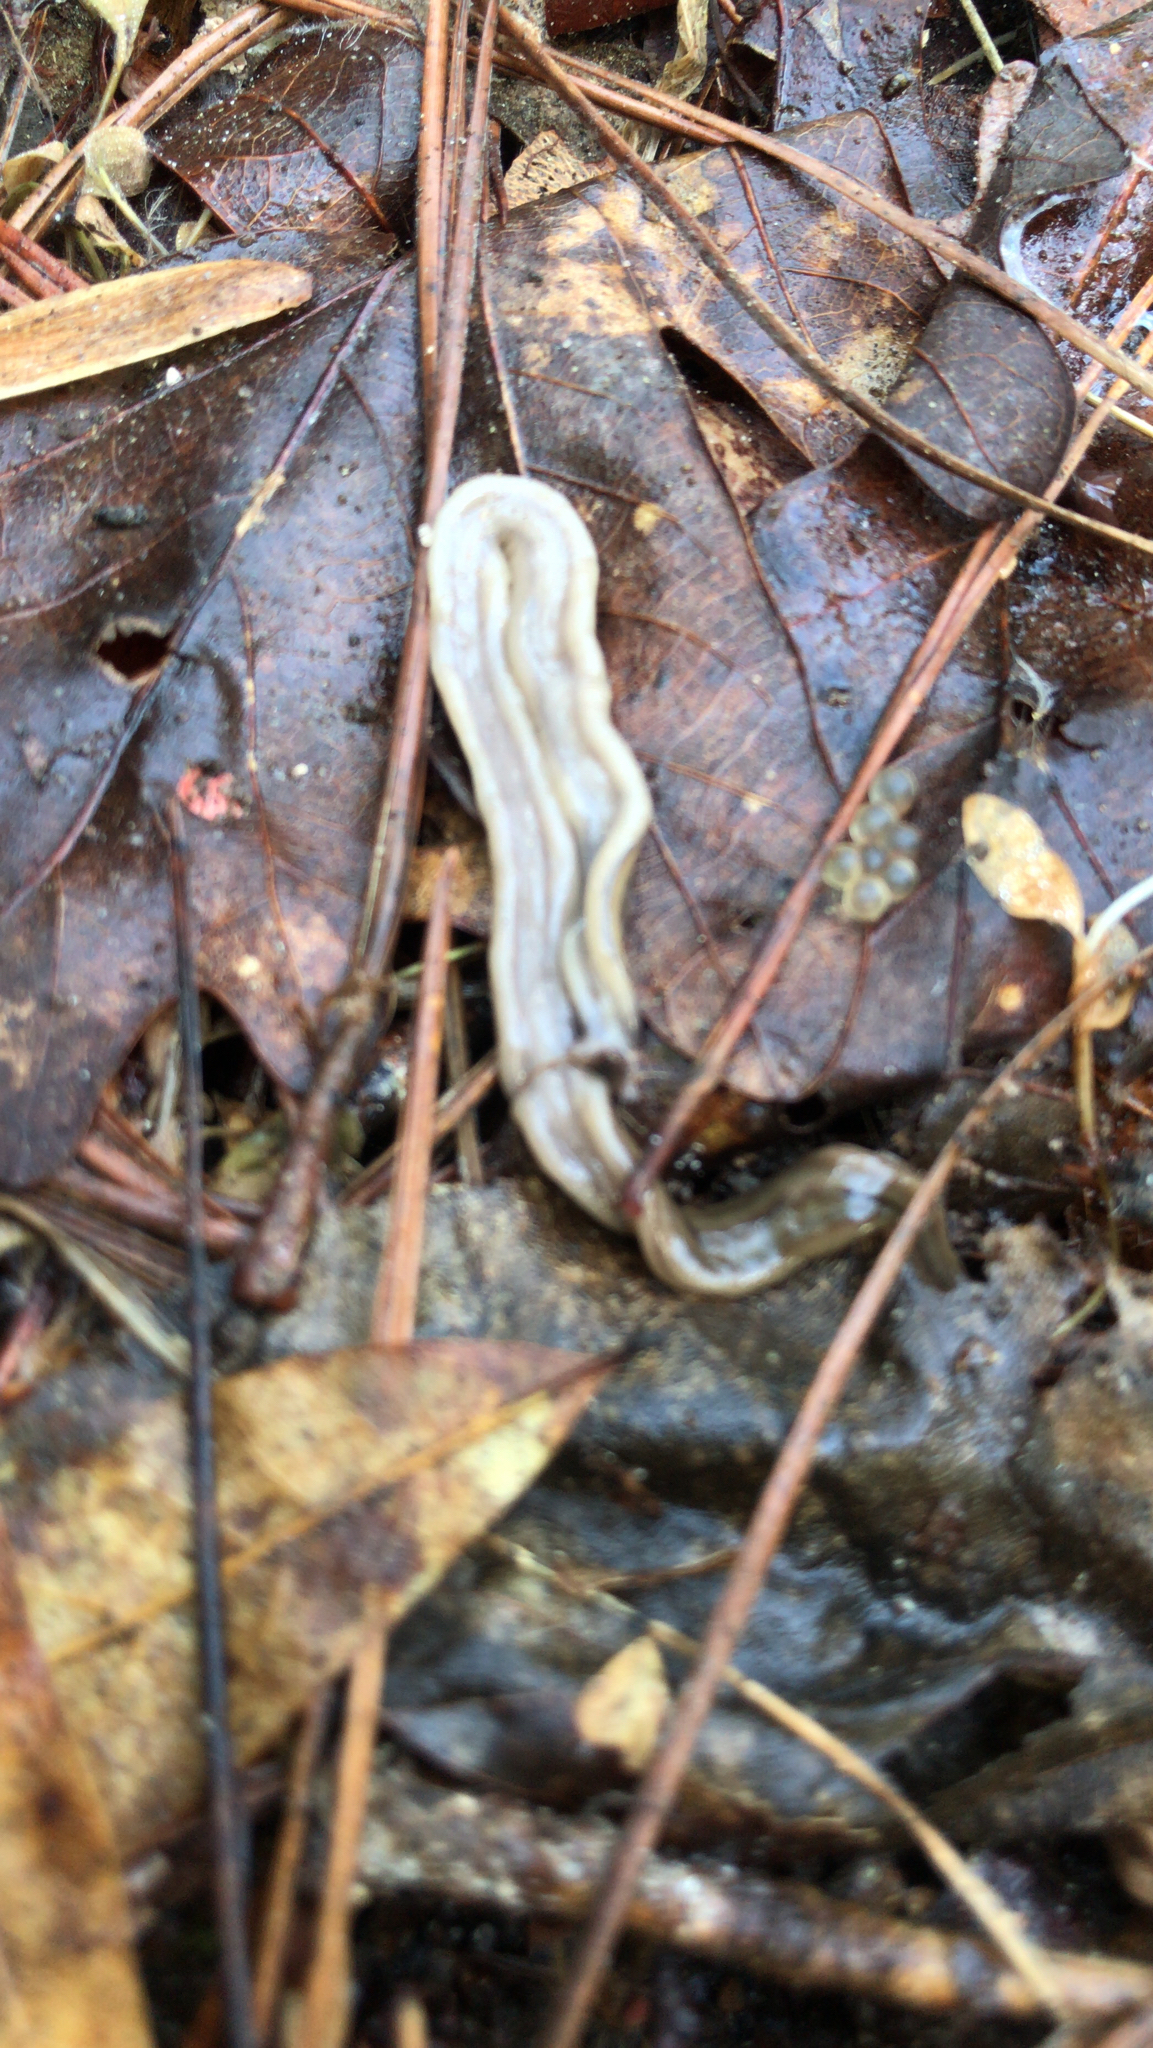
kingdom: Animalia
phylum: Platyhelminthes
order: Tricladida
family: Geoplanidae
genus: Bipalium
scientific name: Bipalium pennsylvanicum
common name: Three-lined land planarian
